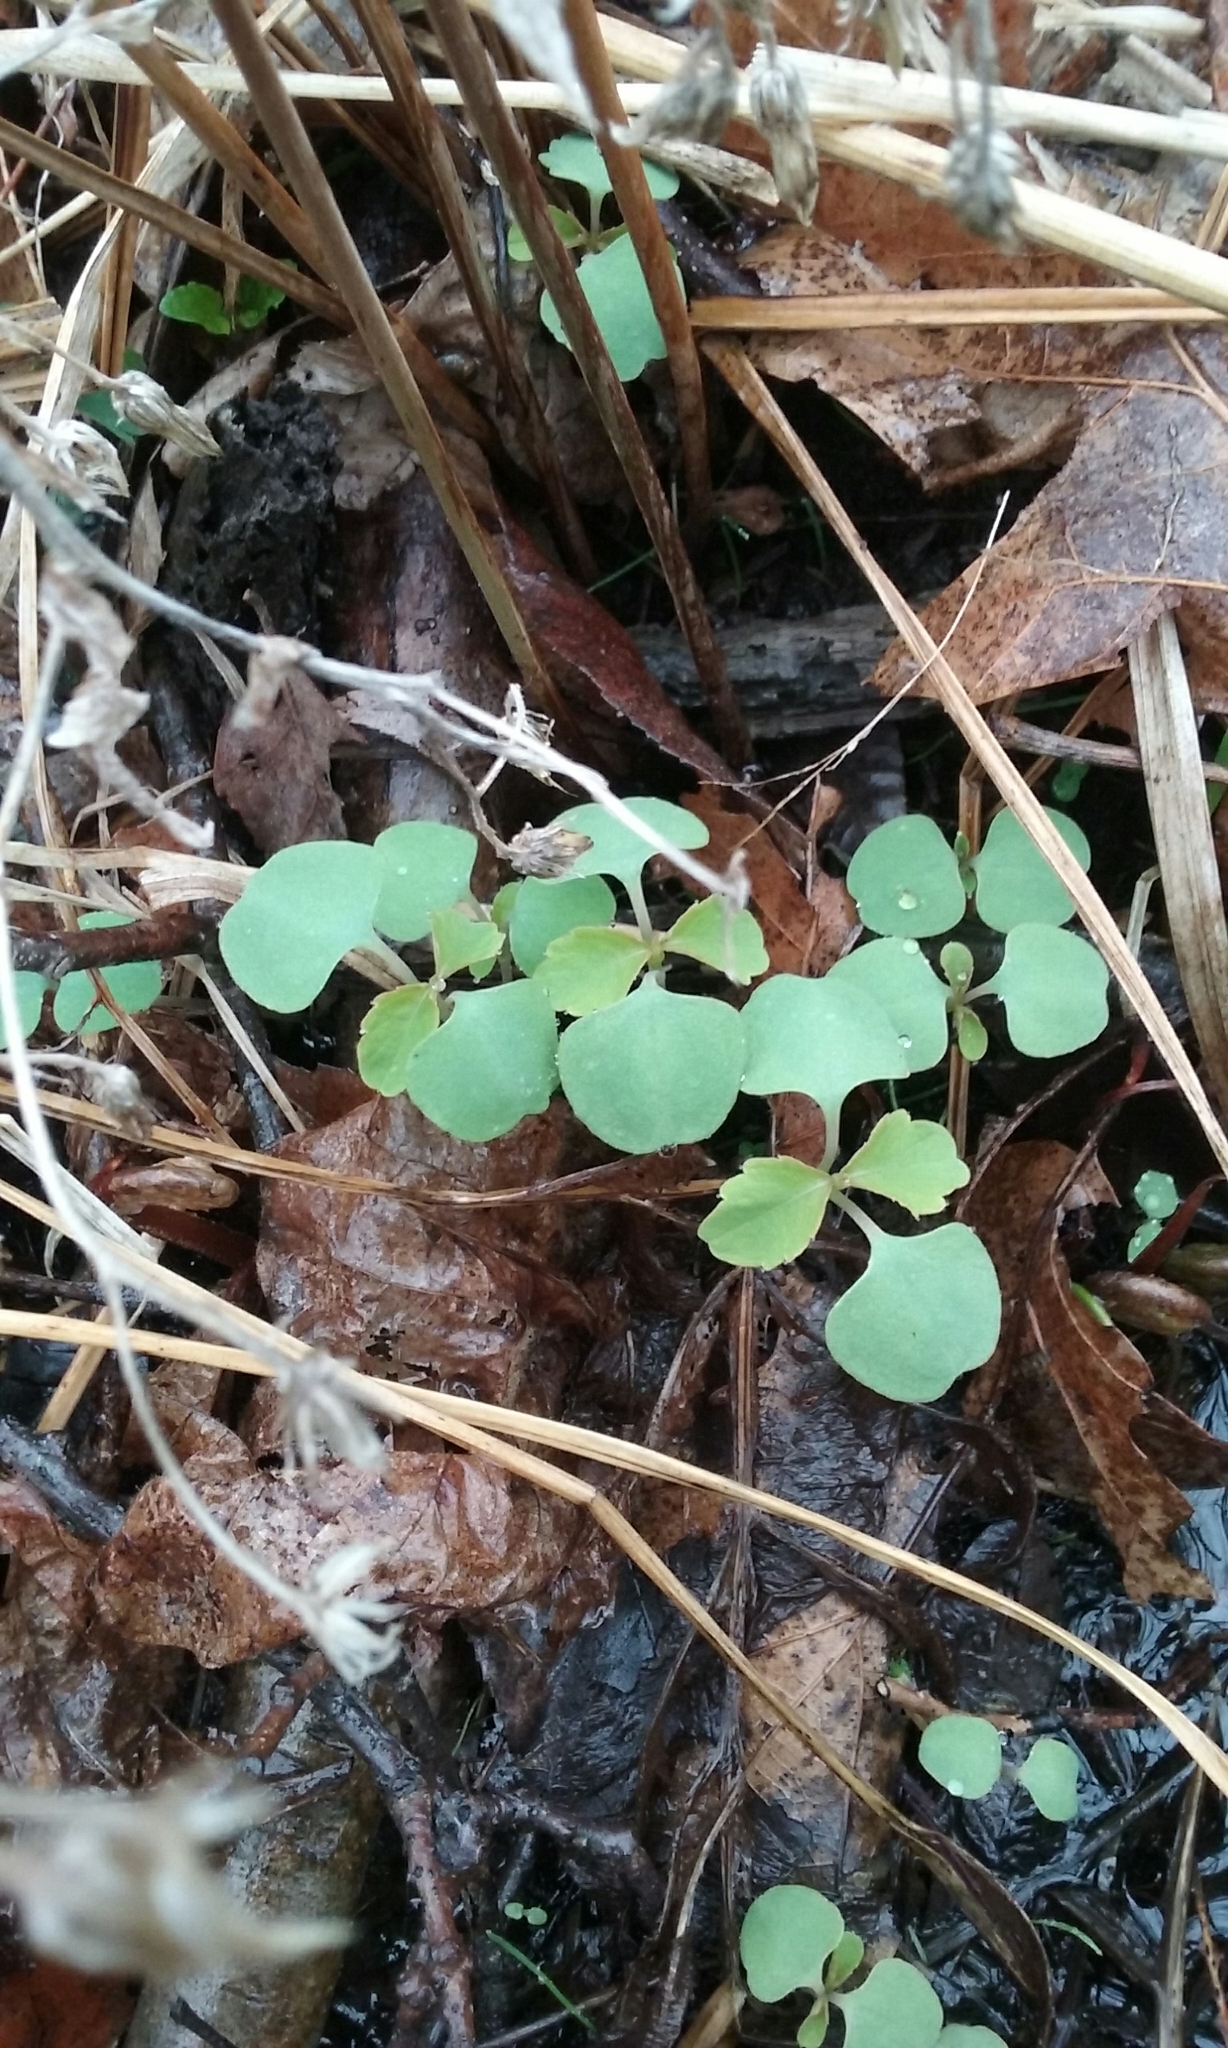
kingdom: Plantae
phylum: Tracheophyta
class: Magnoliopsida
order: Ericales
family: Balsaminaceae
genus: Impatiens
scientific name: Impatiens
